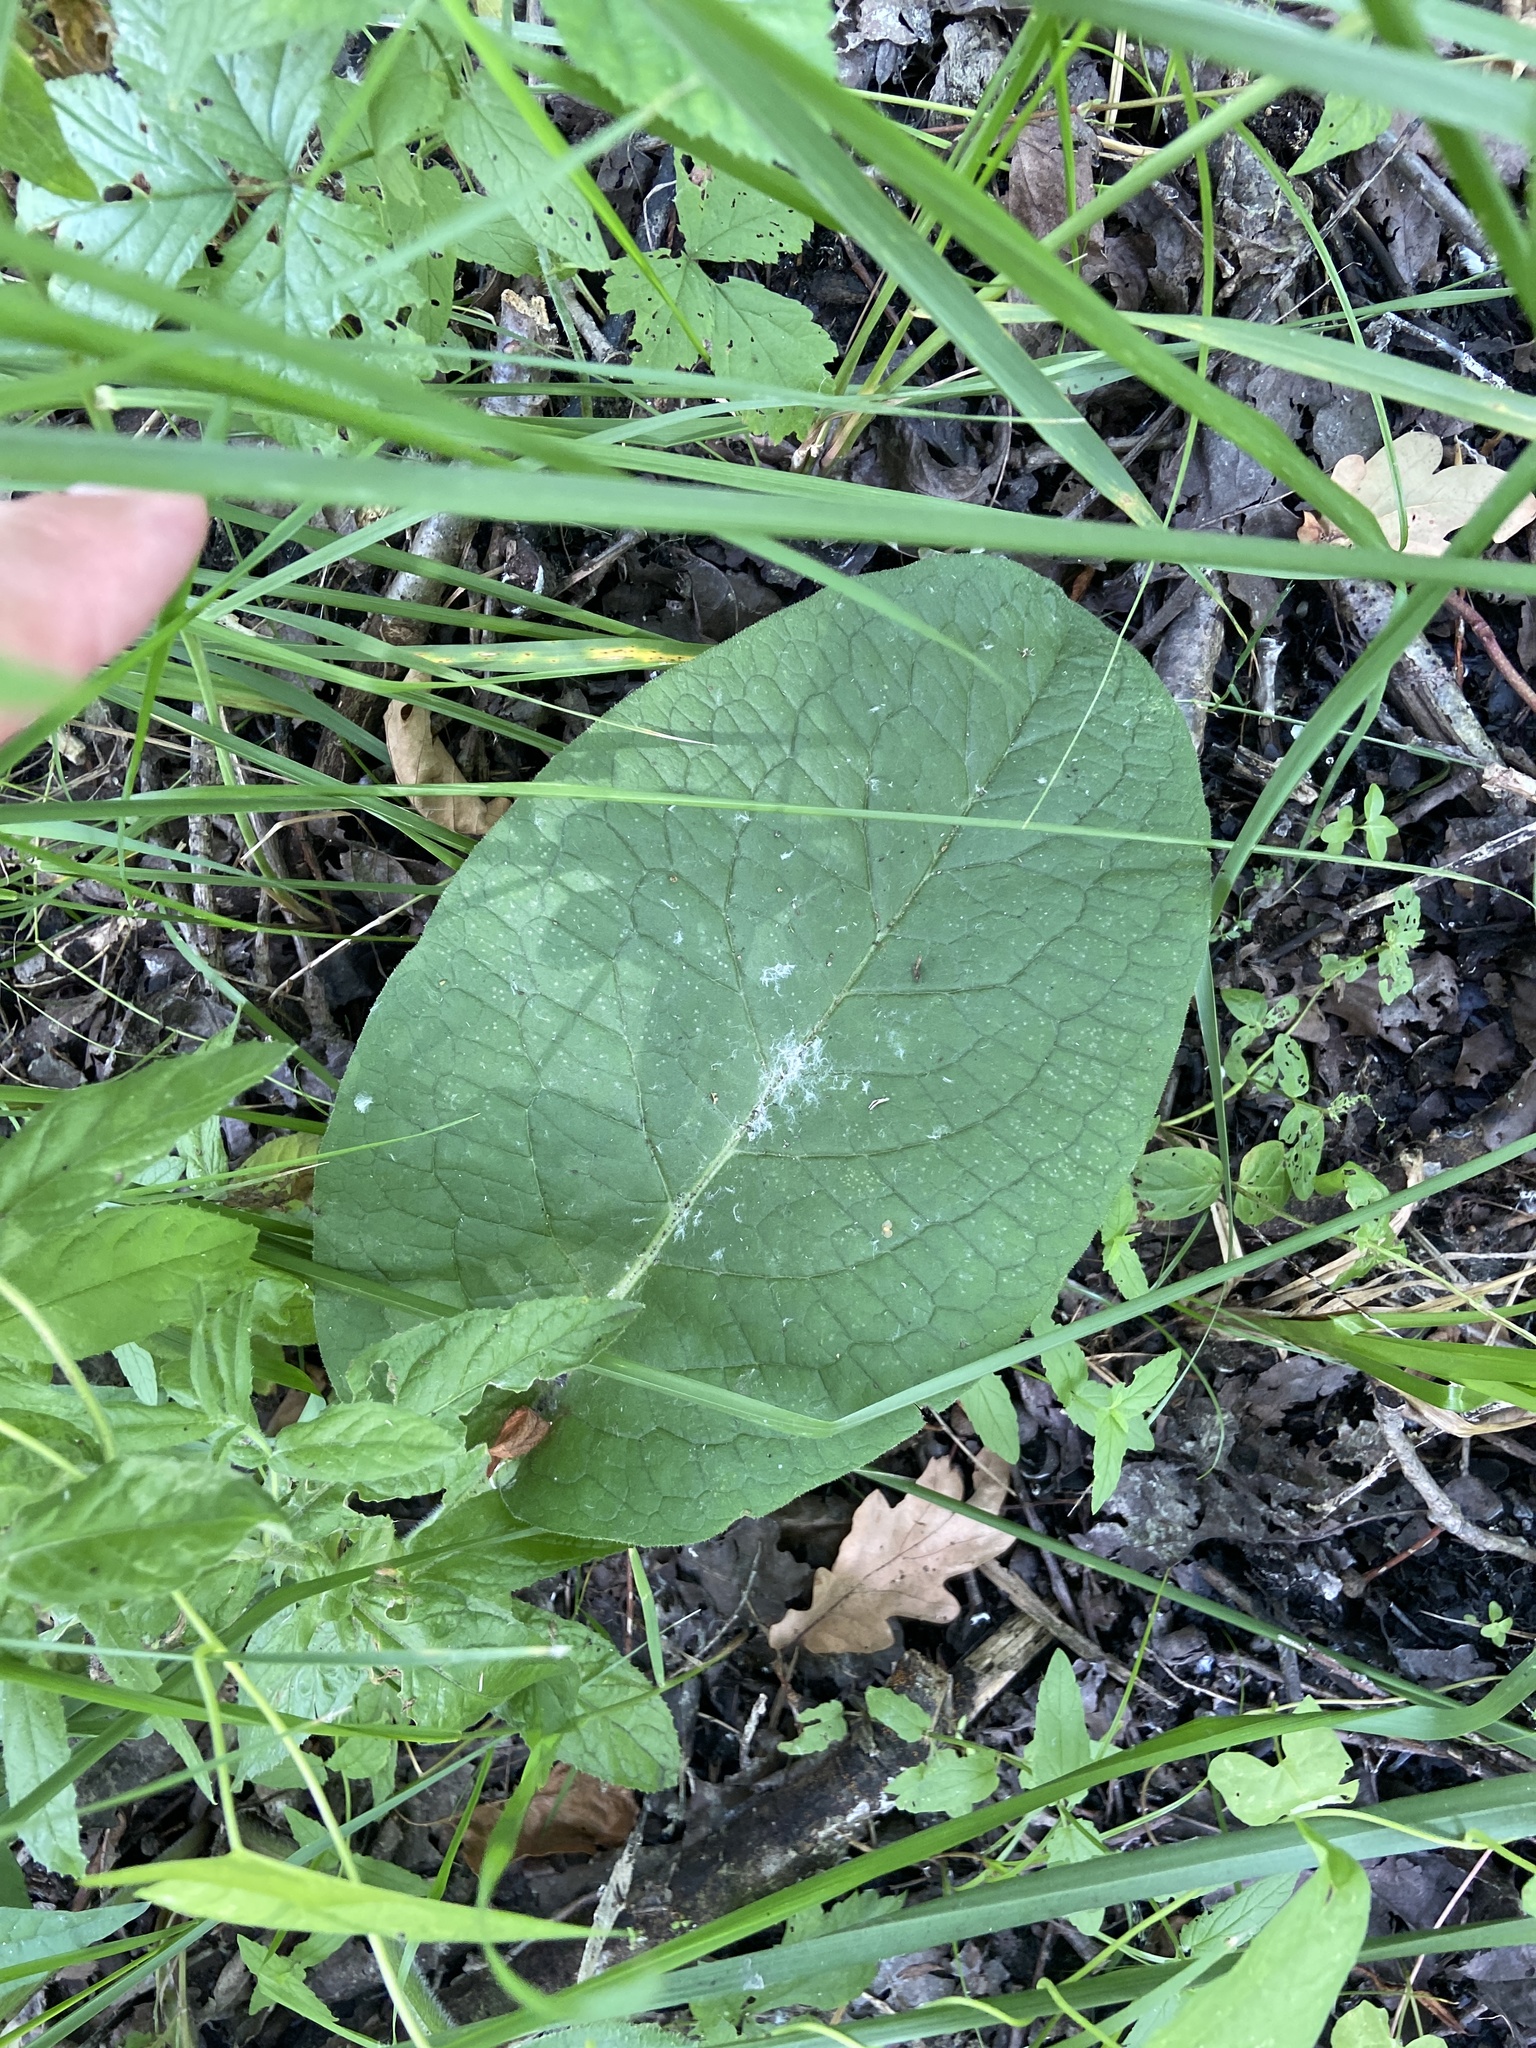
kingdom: Plantae
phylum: Tracheophyta
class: Magnoliopsida
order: Boraginales
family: Boraginaceae
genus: Symphytum
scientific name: Symphytum officinale
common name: Common comfrey
